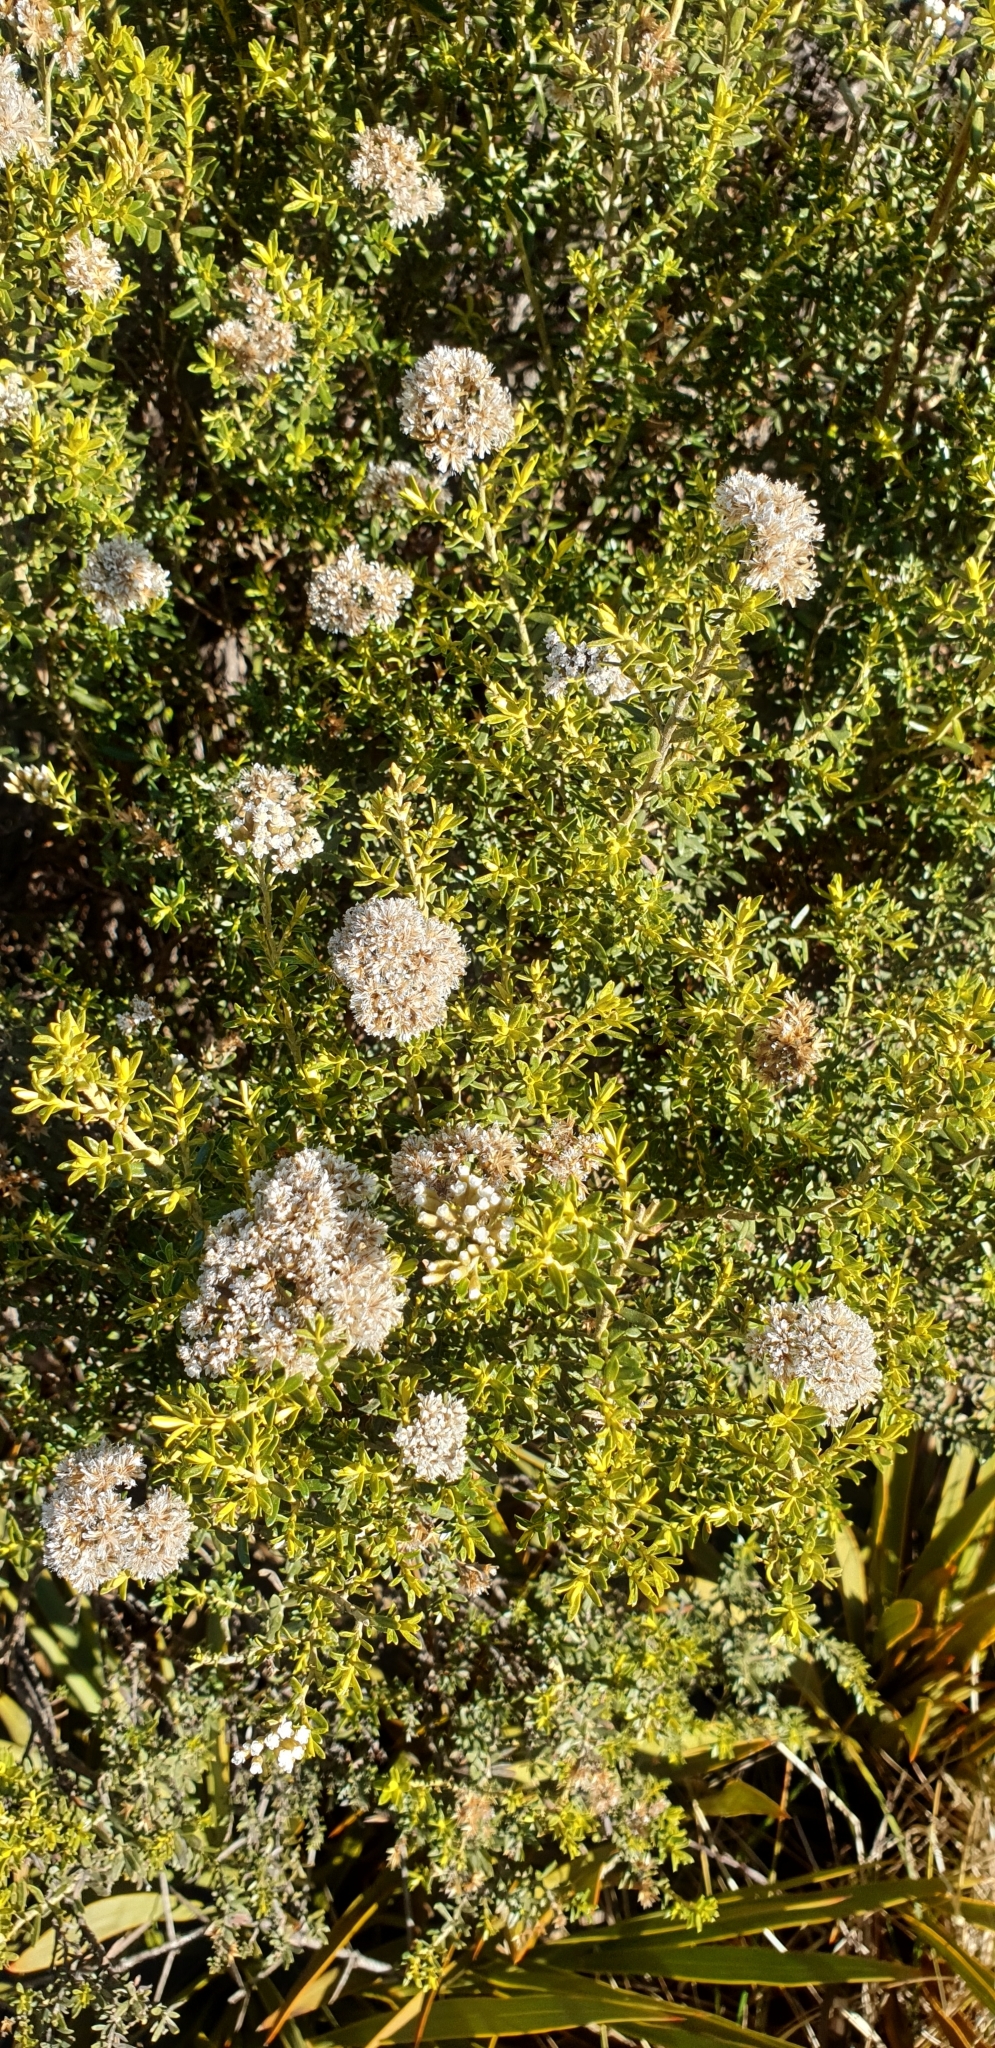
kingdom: Plantae
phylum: Tracheophyta
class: Magnoliopsida
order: Asterales
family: Asteraceae
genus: Ozothamnus
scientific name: Ozothamnus leptophyllus
